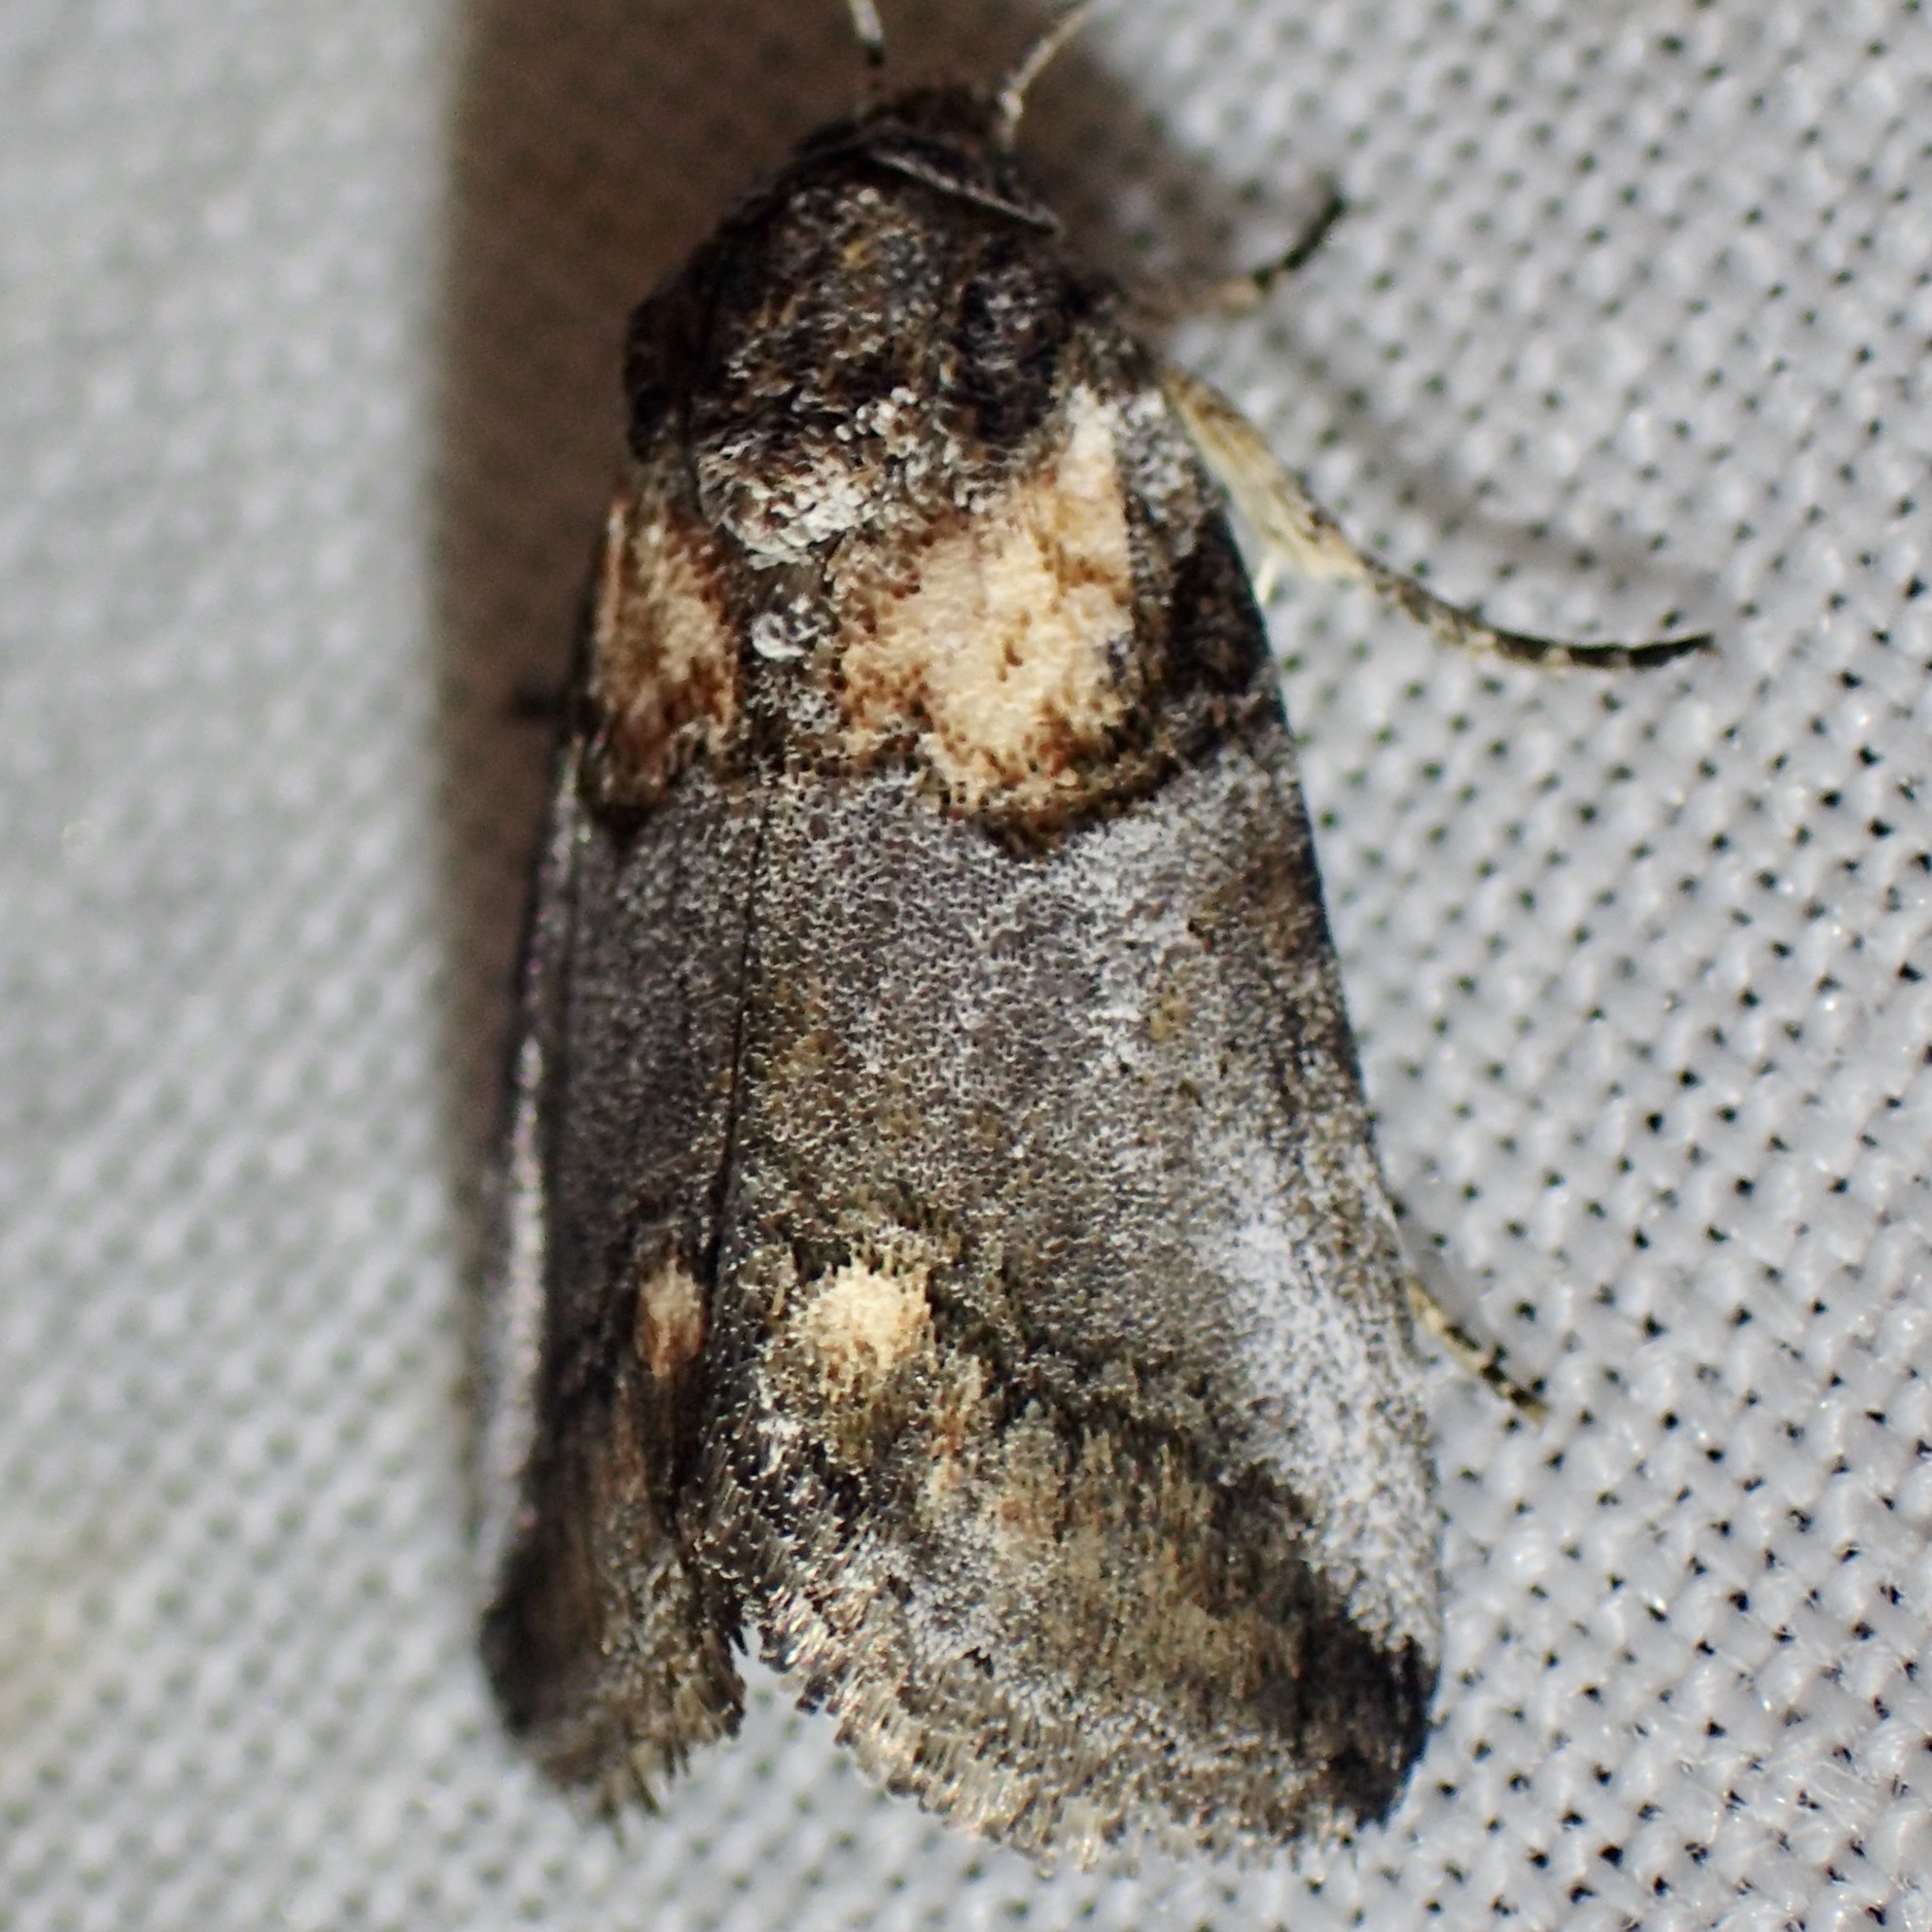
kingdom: Animalia
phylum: Arthropoda
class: Insecta
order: Lepidoptera
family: Noctuidae
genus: Aleptina
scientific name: Aleptina clinopetes
